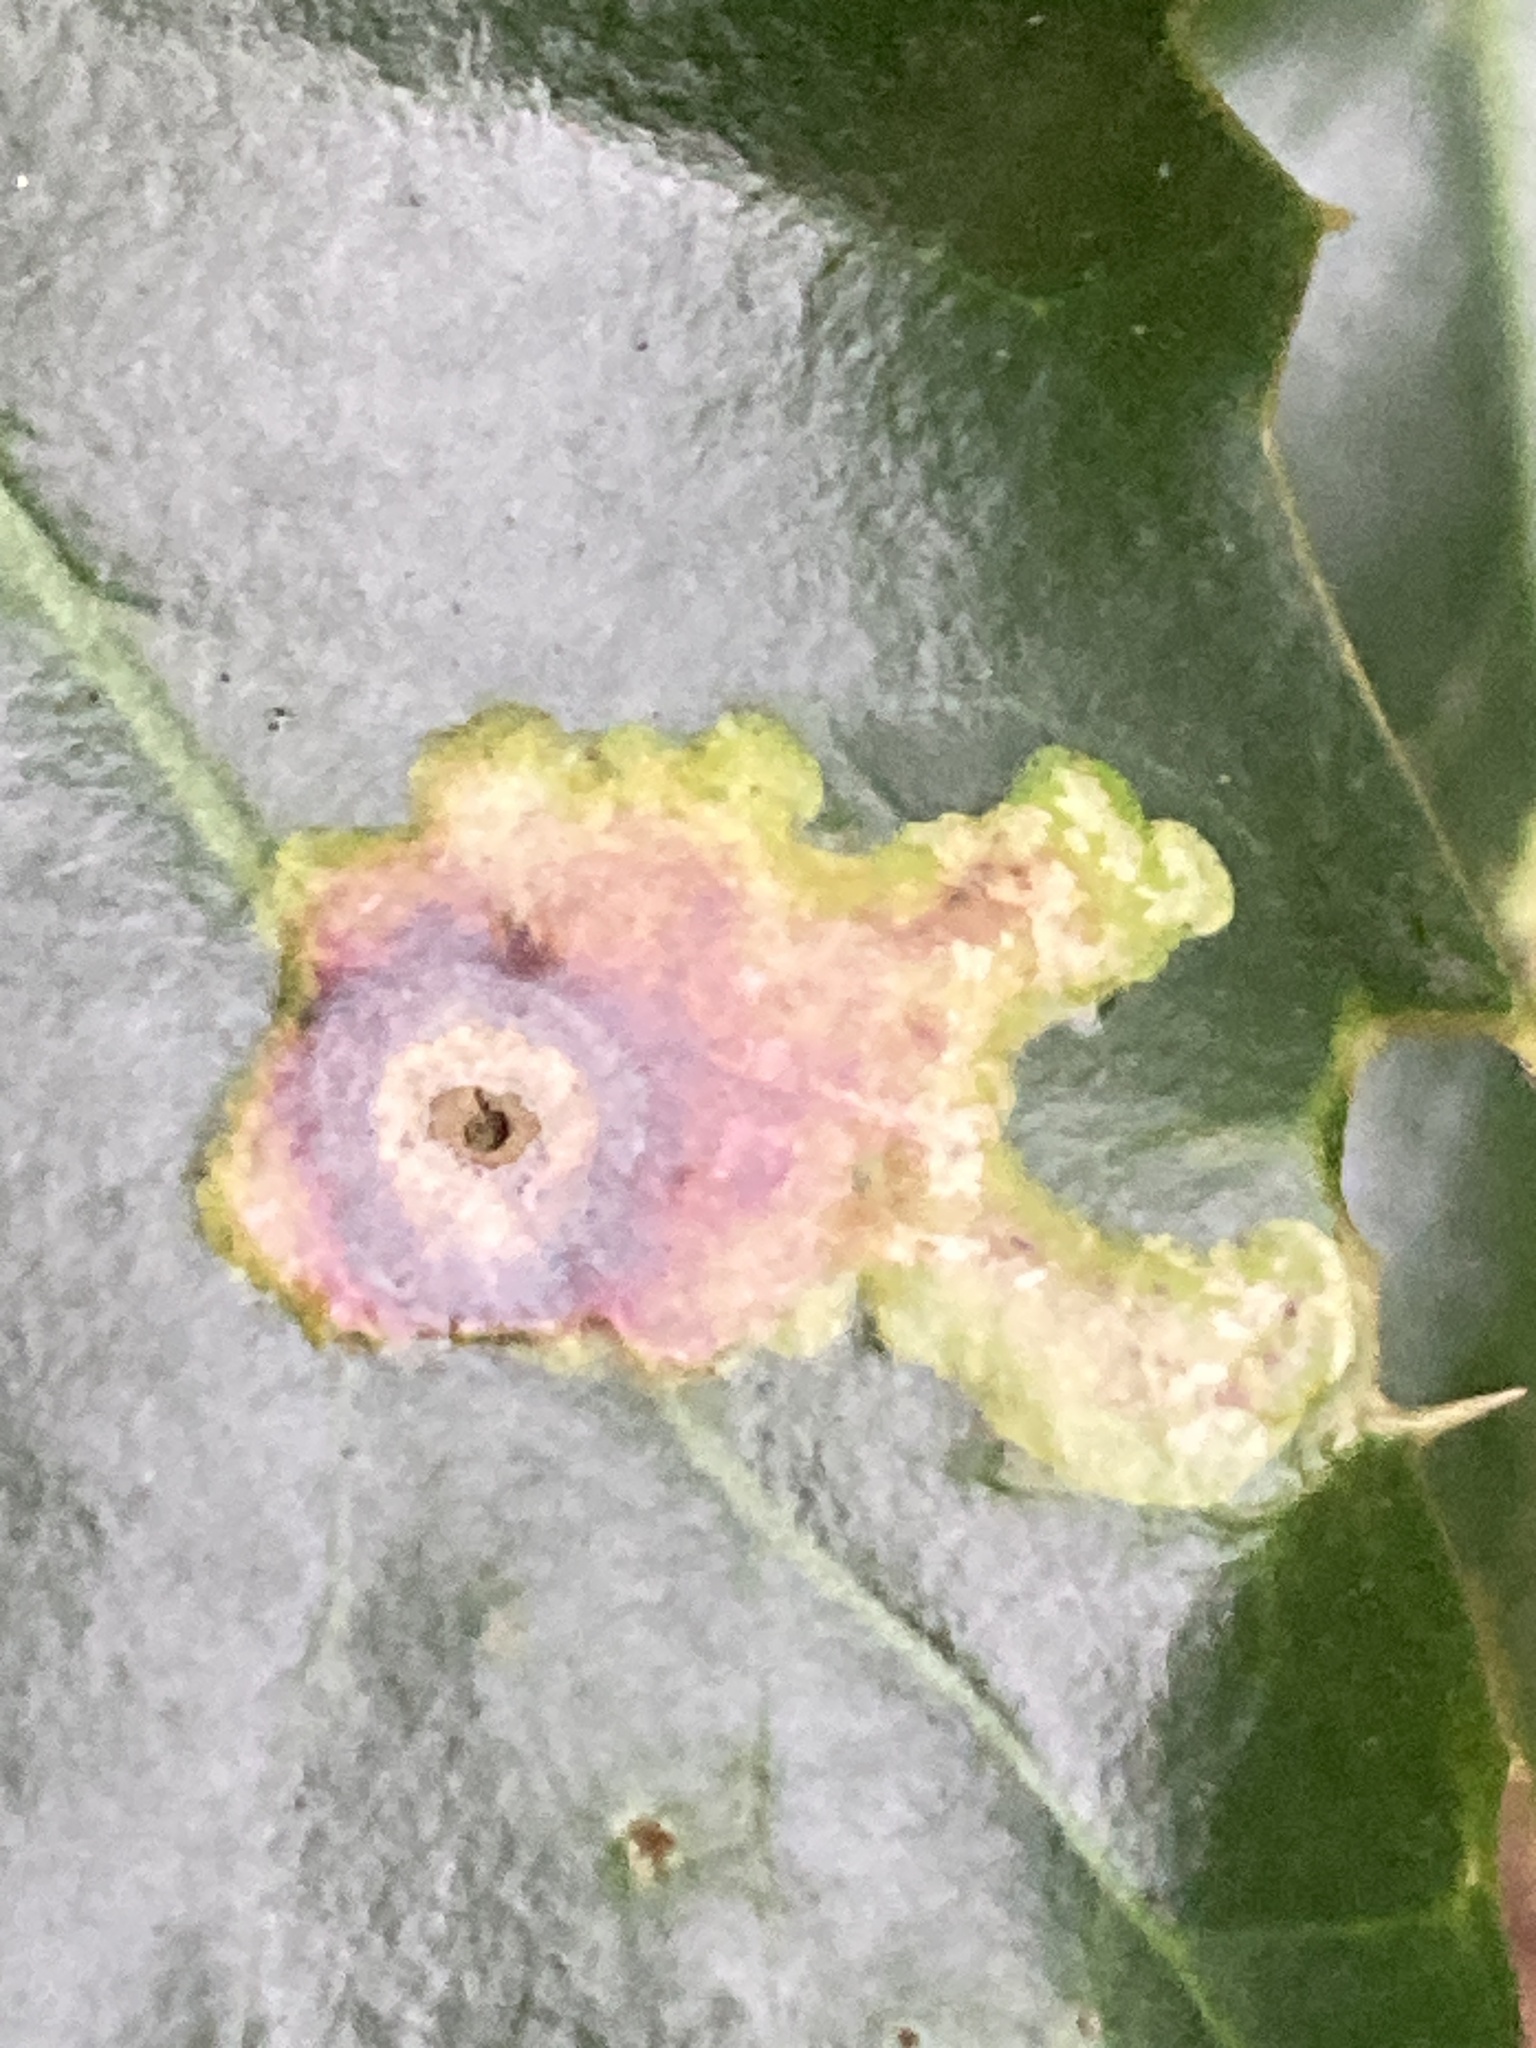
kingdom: Animalia
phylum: Arthropoda
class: Insecta
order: Diptera
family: Agromyzidae
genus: Phytomyza
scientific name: Phytomyza ilicis
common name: Holly leafminer
